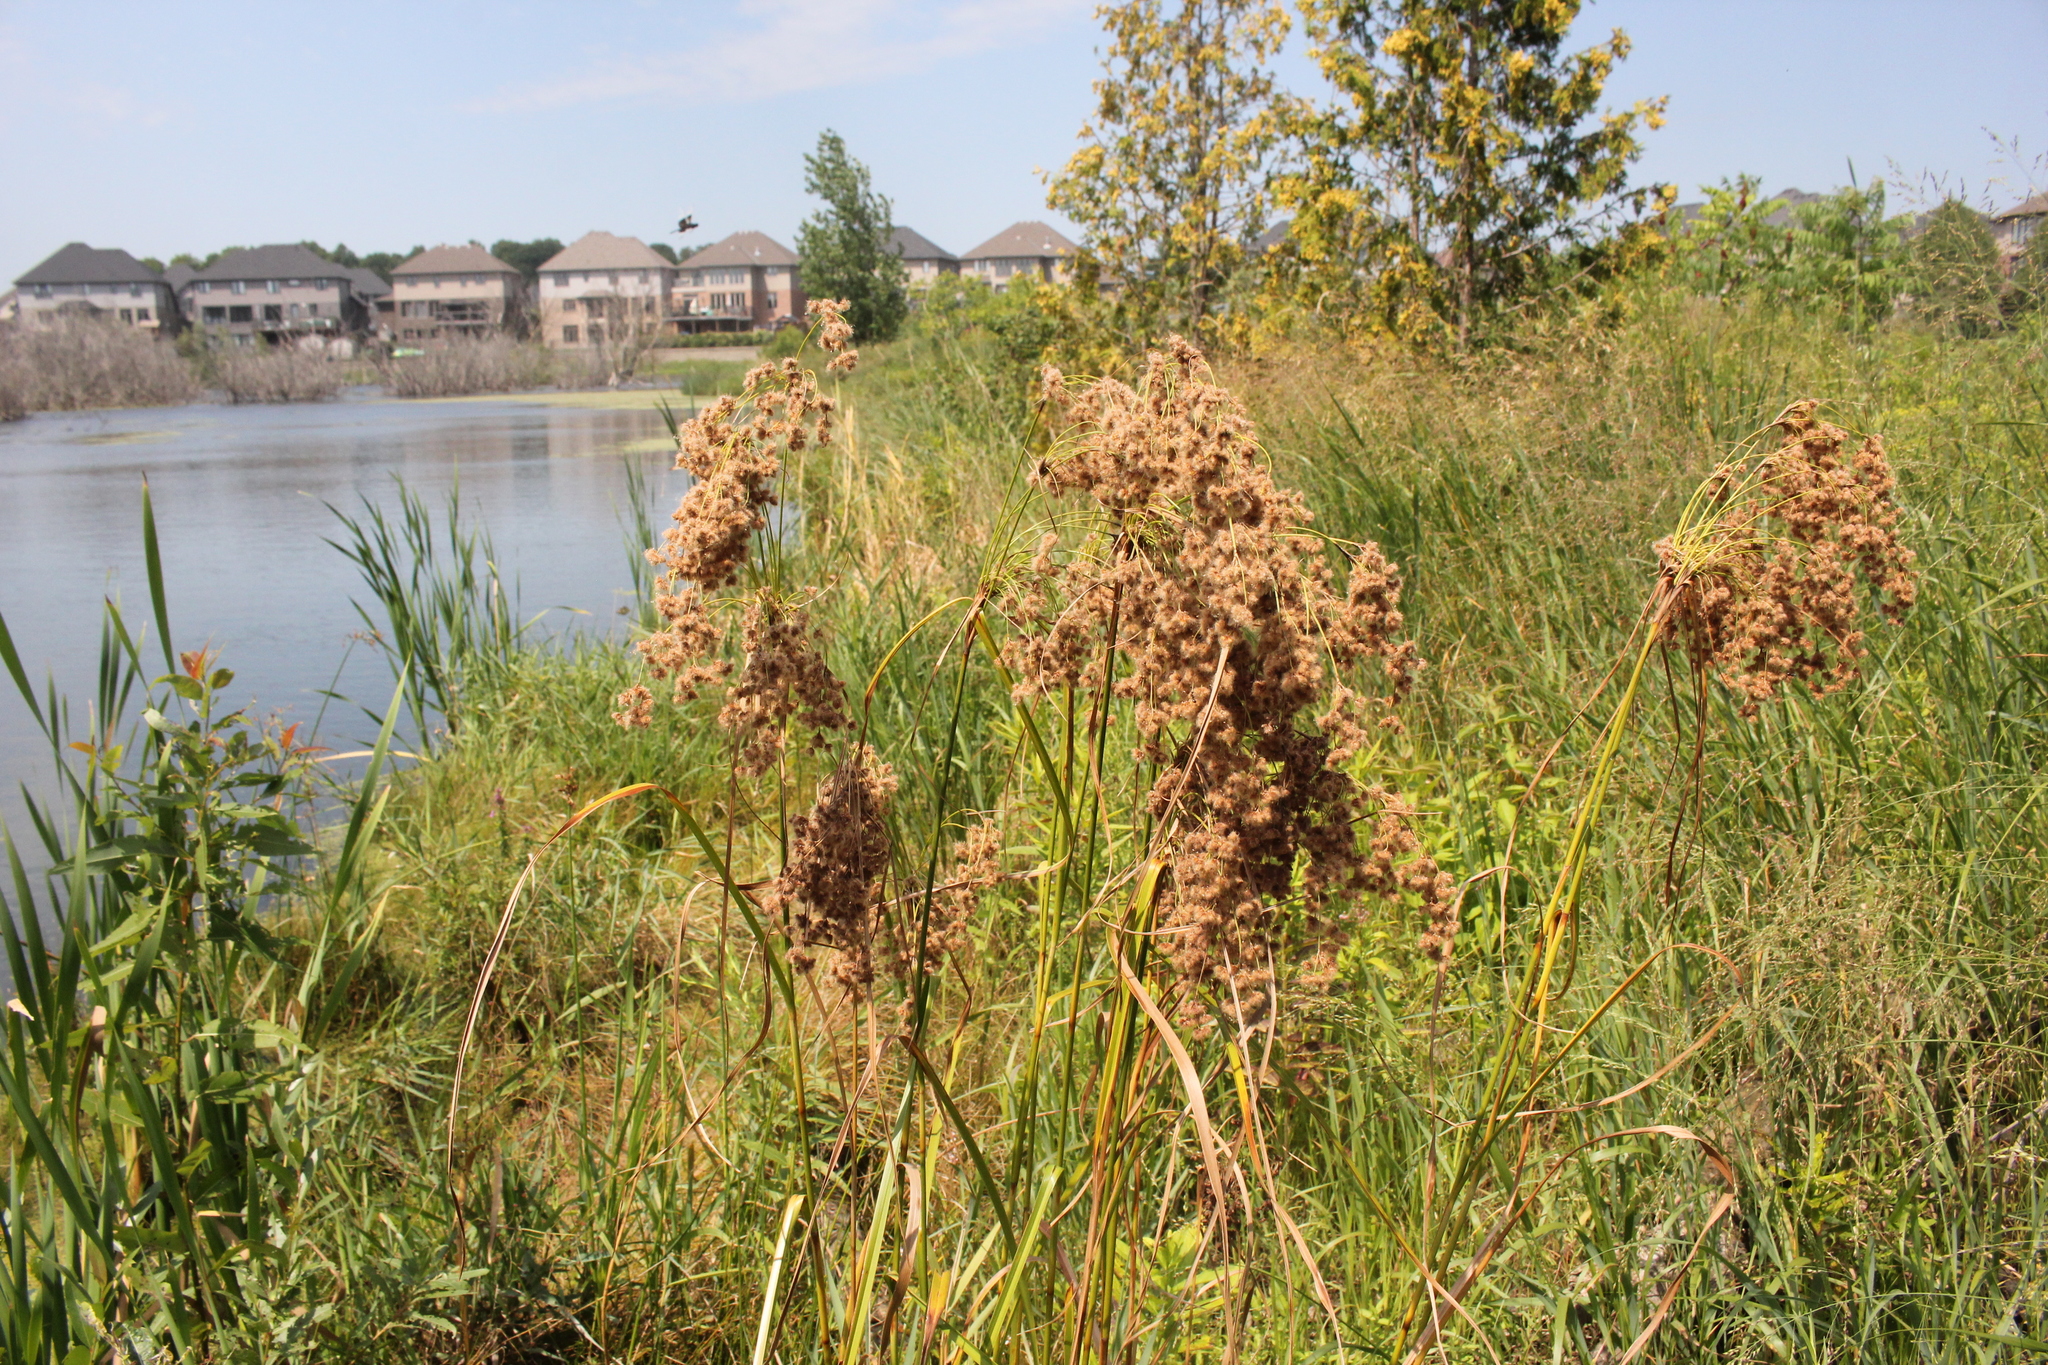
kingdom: Plantae
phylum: Tracheophyta
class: Liliopsida
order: Poales
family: Cyperaceae
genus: Scirpus
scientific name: Scirpus cyperinus
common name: Black-sheathed bulrush
